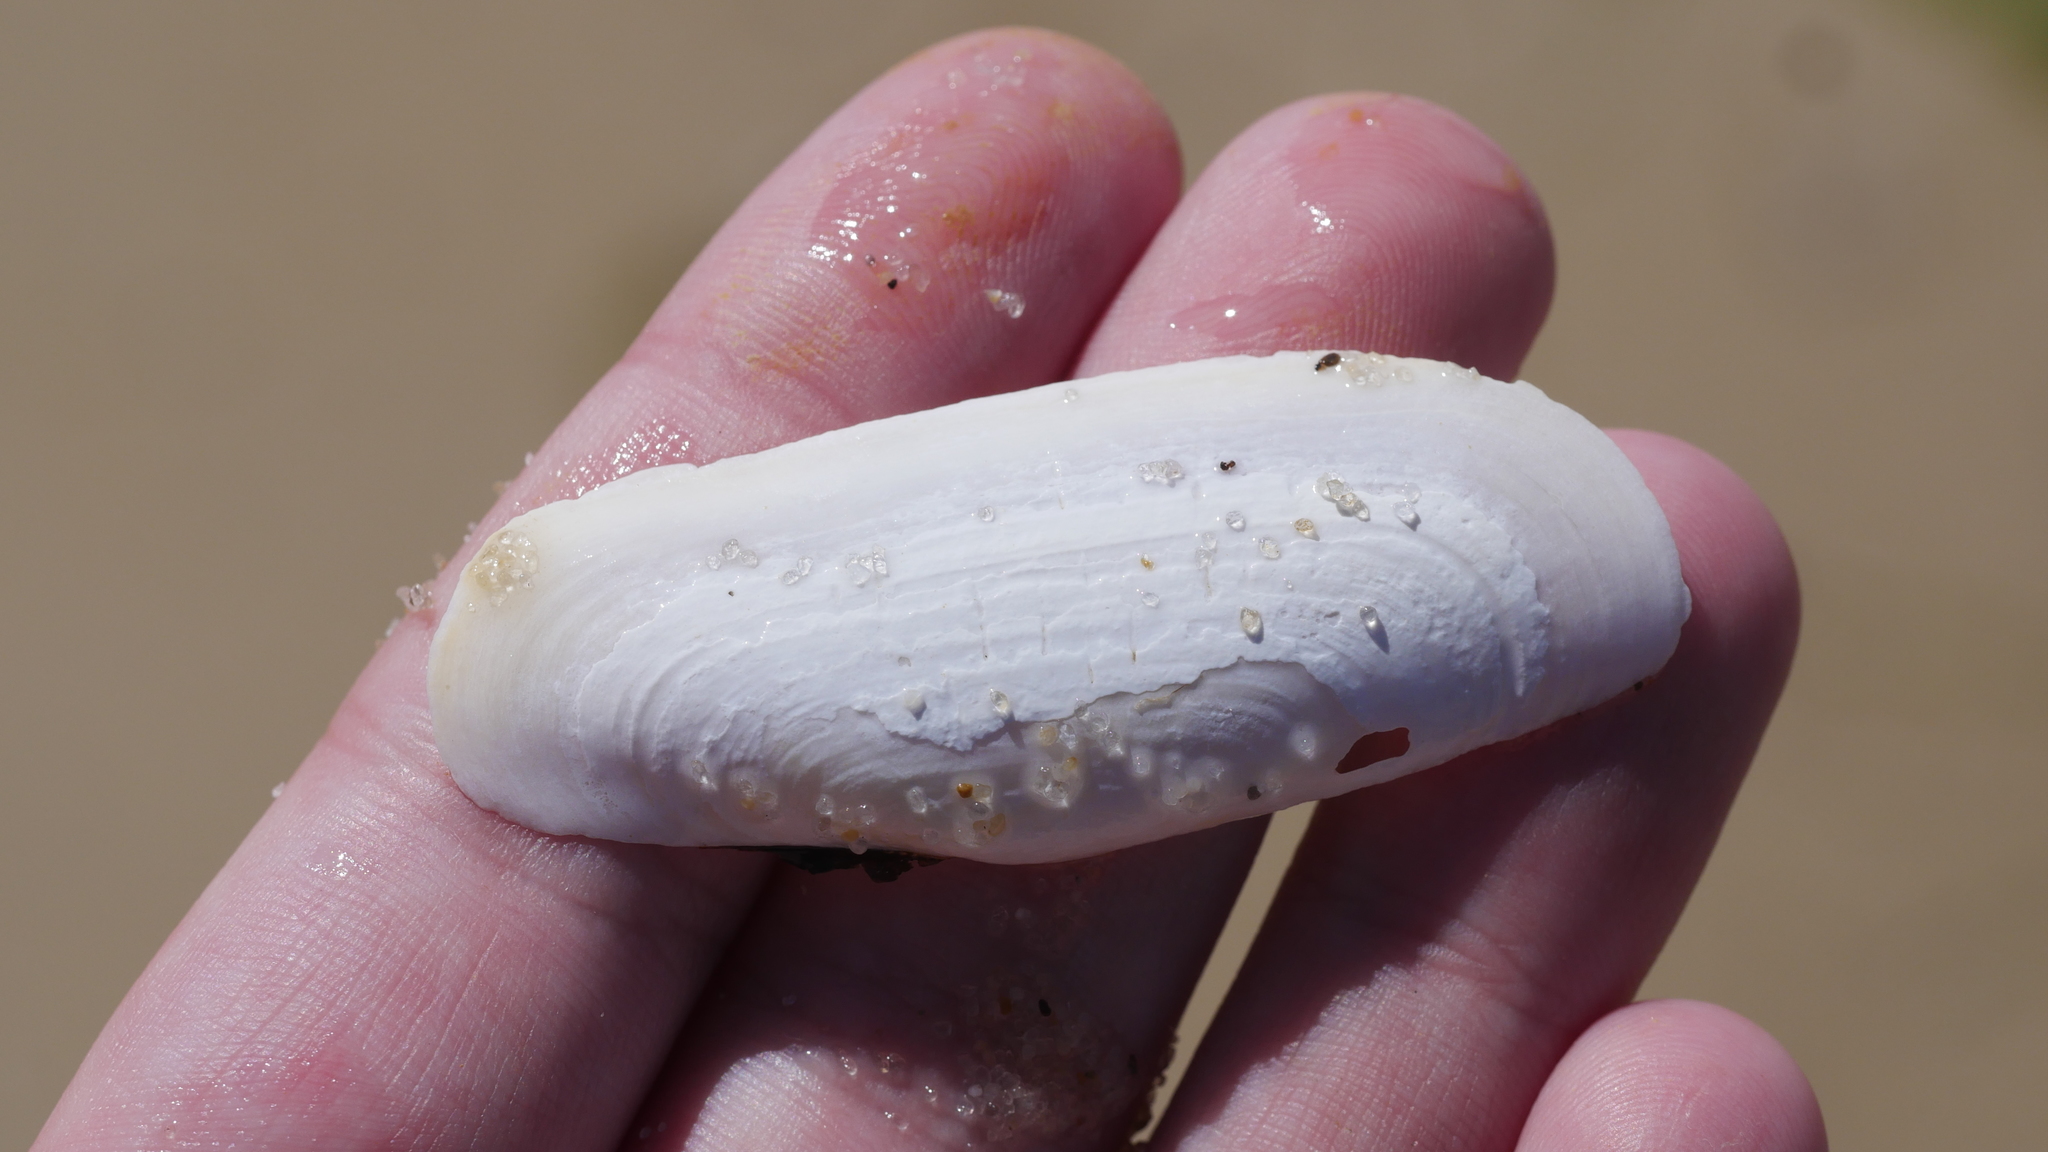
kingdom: Animalia
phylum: Mollusca
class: Bivalvia
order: Cardiida
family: Solecurtidae
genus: Tagelus
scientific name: Tagelus plebeius
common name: Stout tagelus
